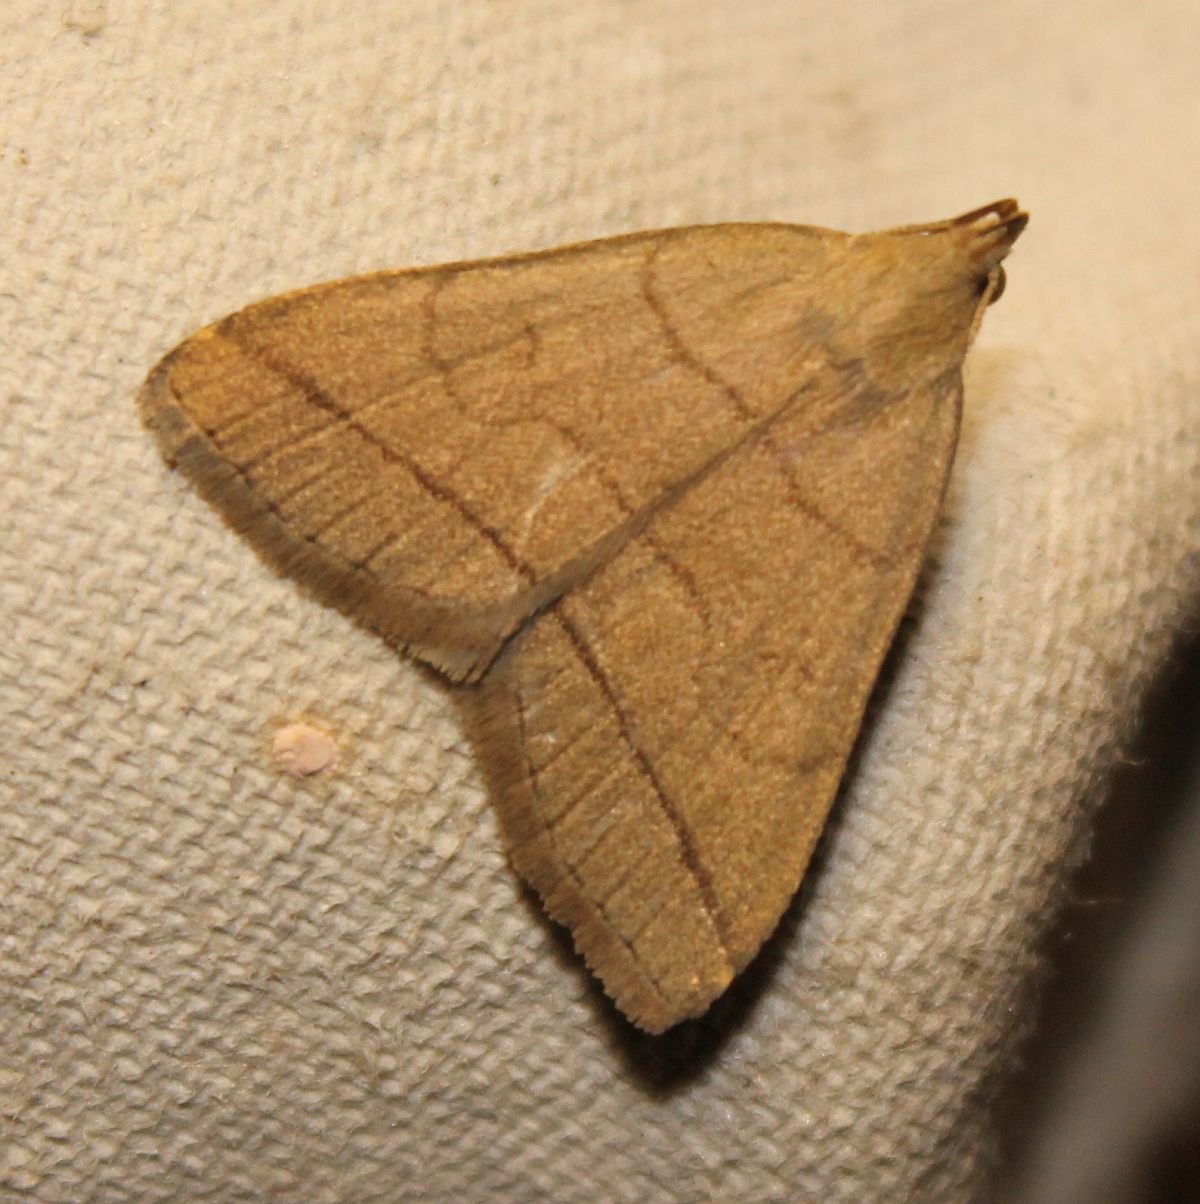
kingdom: Animalia
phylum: Arthropoda
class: Insecta
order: Lepidoptera
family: Erebidae
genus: Herminia
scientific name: Herminia tarsipennalis
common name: Fan-foot
